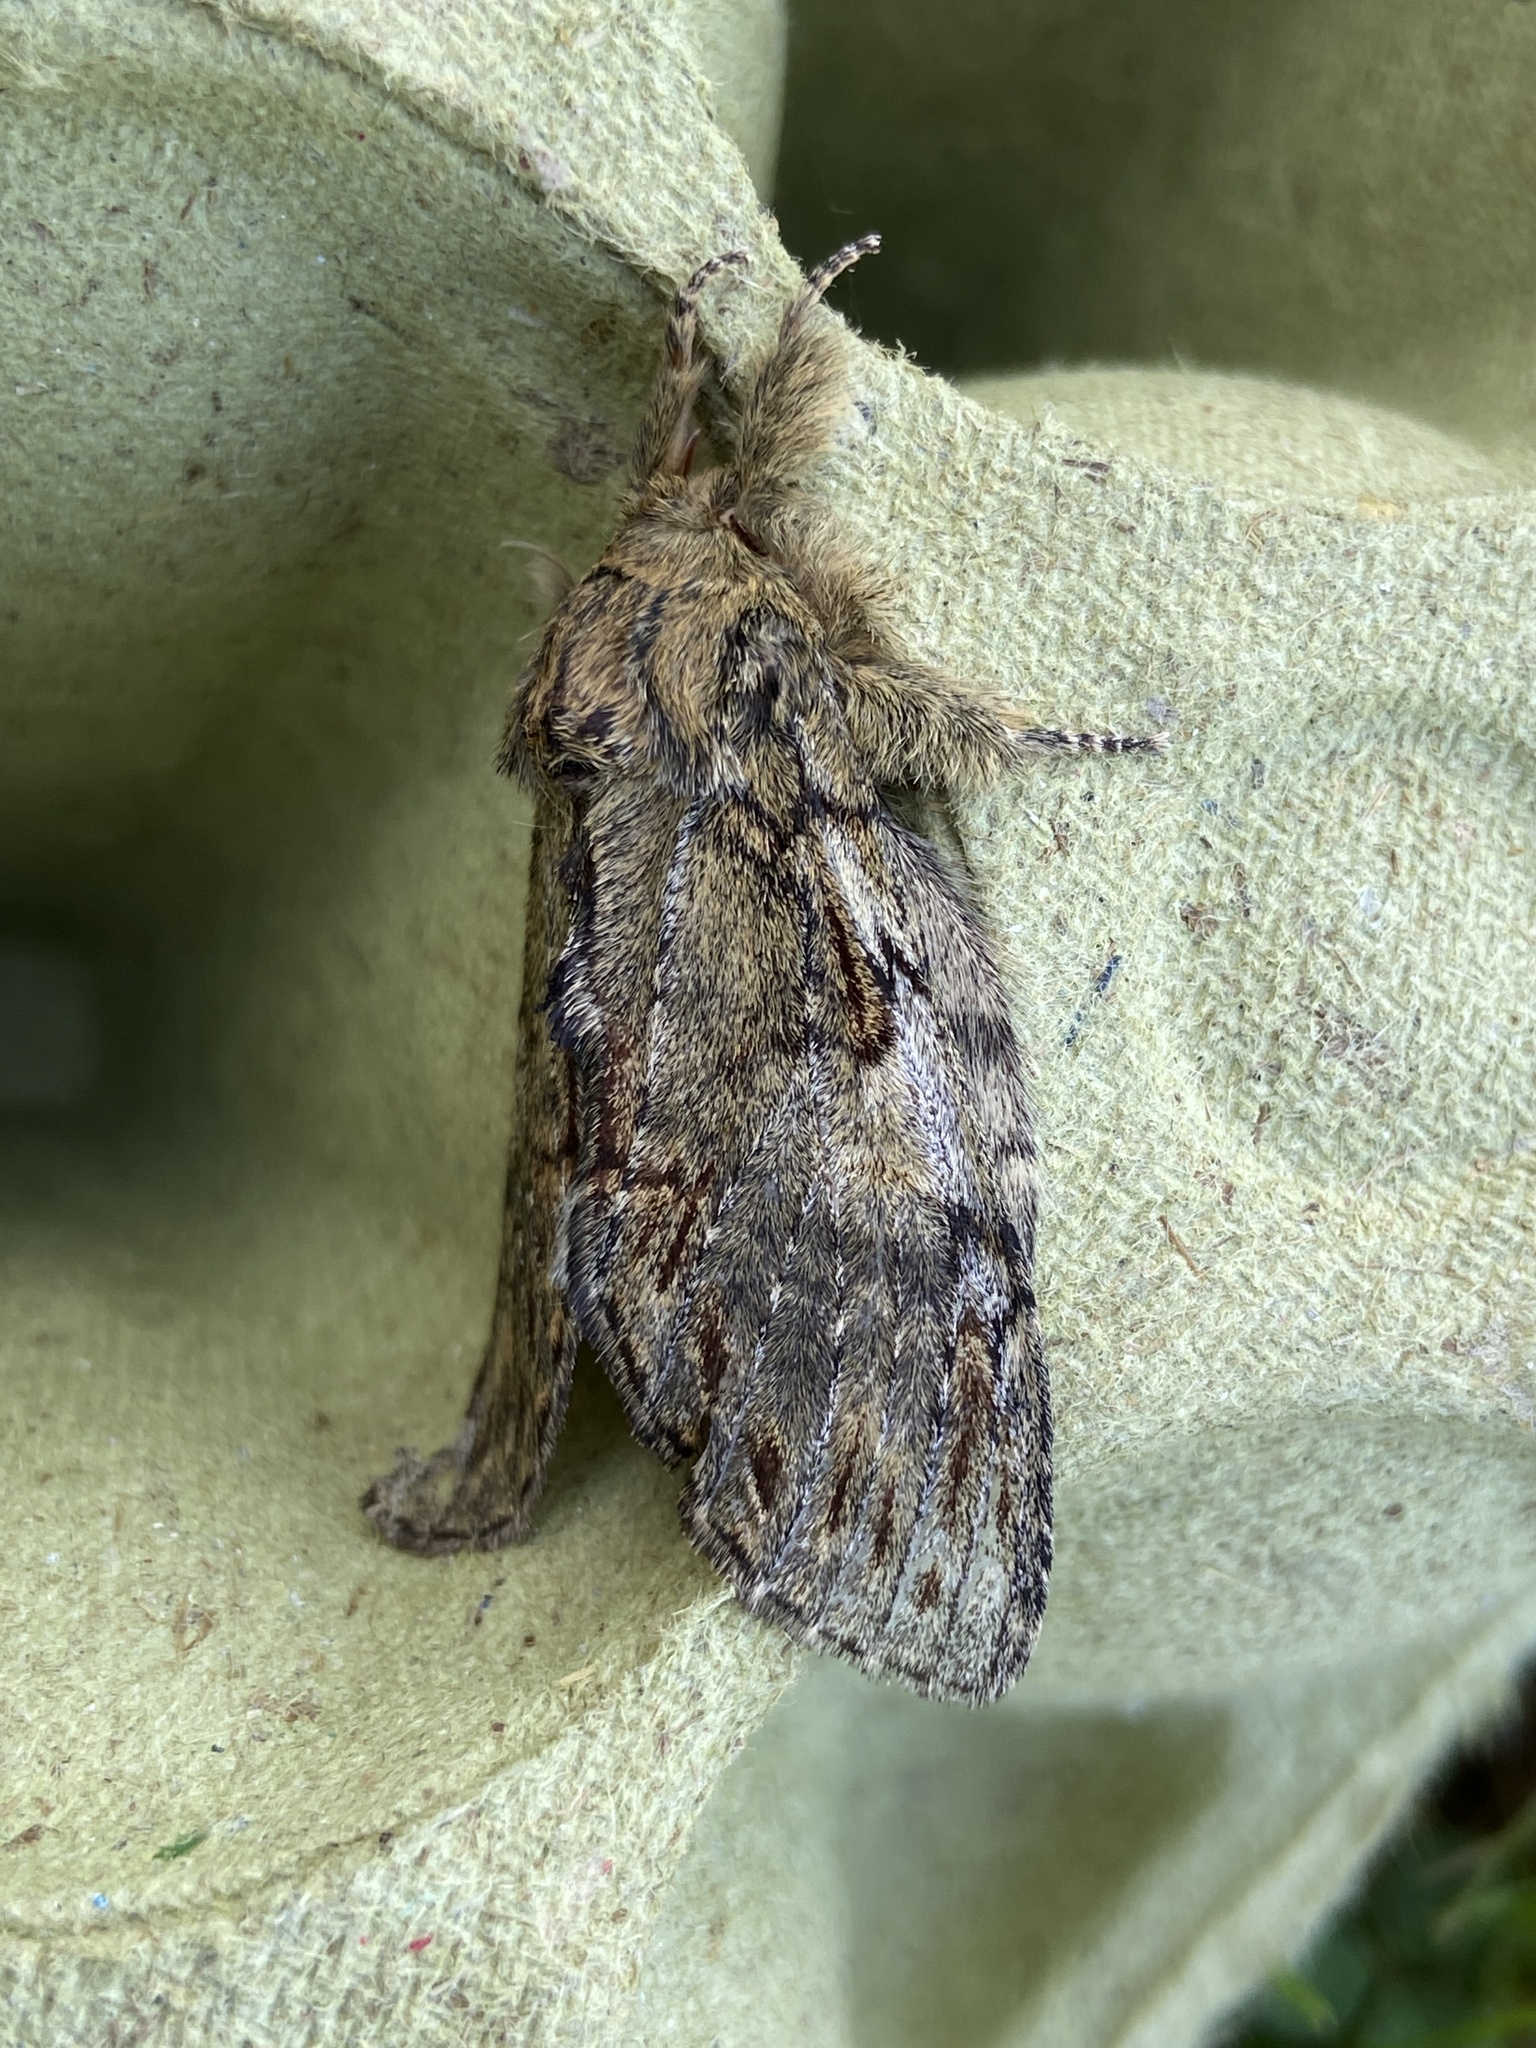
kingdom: Animalia
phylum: Arthropoda
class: Insecta
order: Lepidoptera
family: Notodontidae
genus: Peridea
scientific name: Peridea anceps
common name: Great prominent
